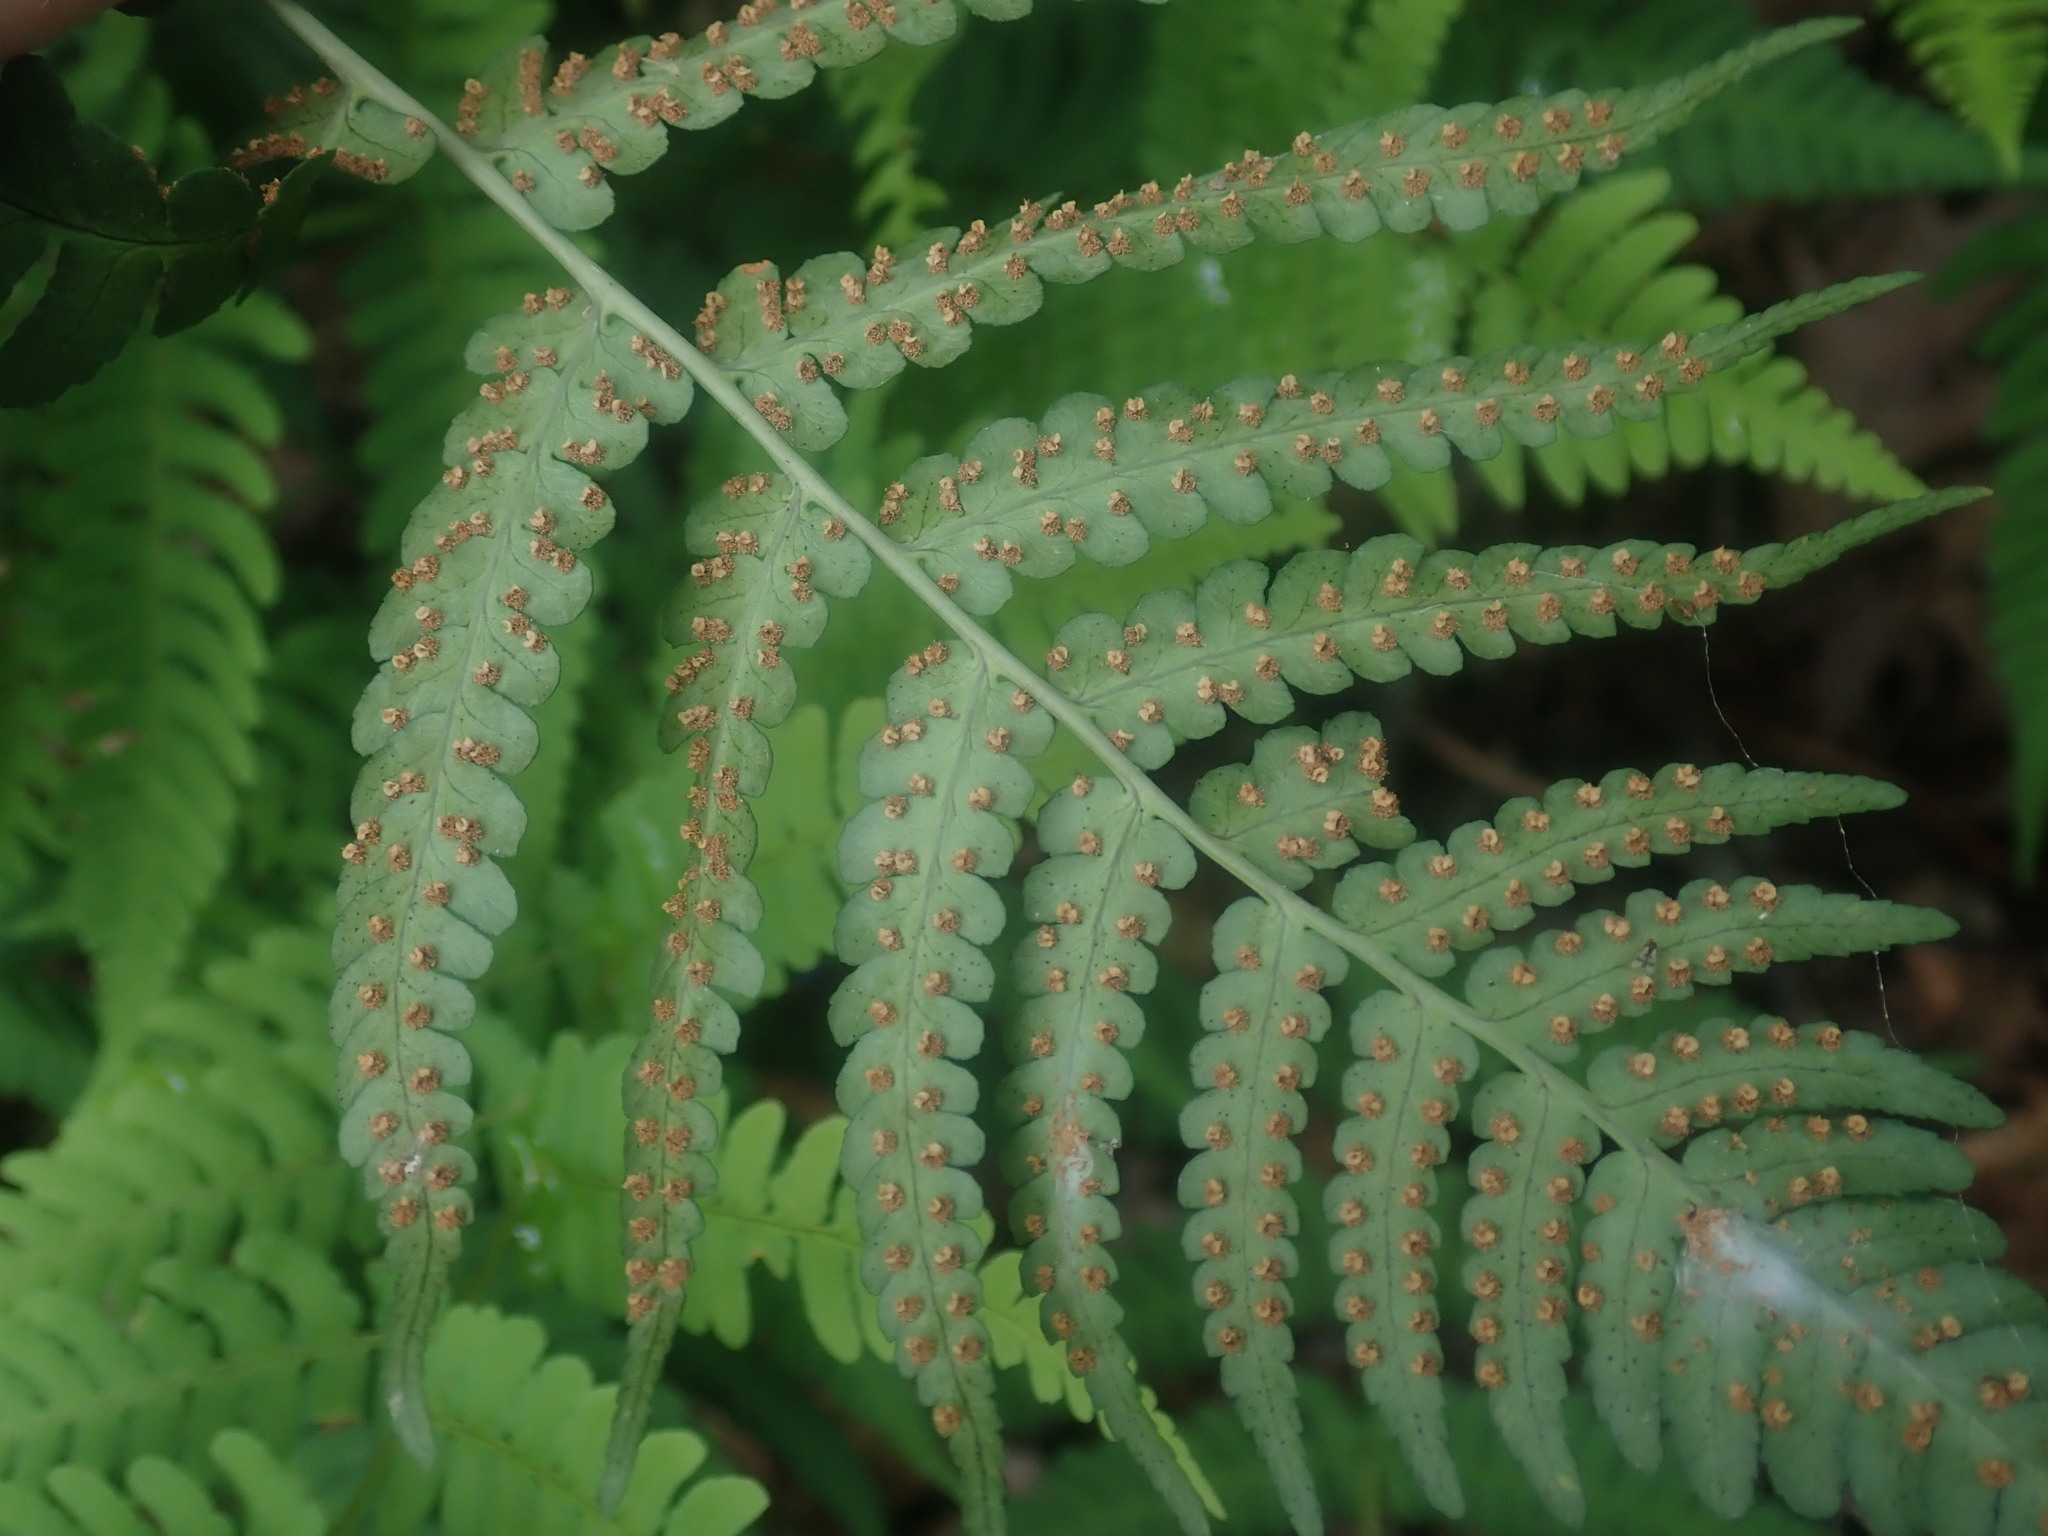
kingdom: Plantae
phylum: Tracheophyta
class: Polypodiopsida
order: Polypodiales
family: Dryopteridaceae
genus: Dryopteris
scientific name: Dryopteris marginalis
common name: Marginal wood fern
